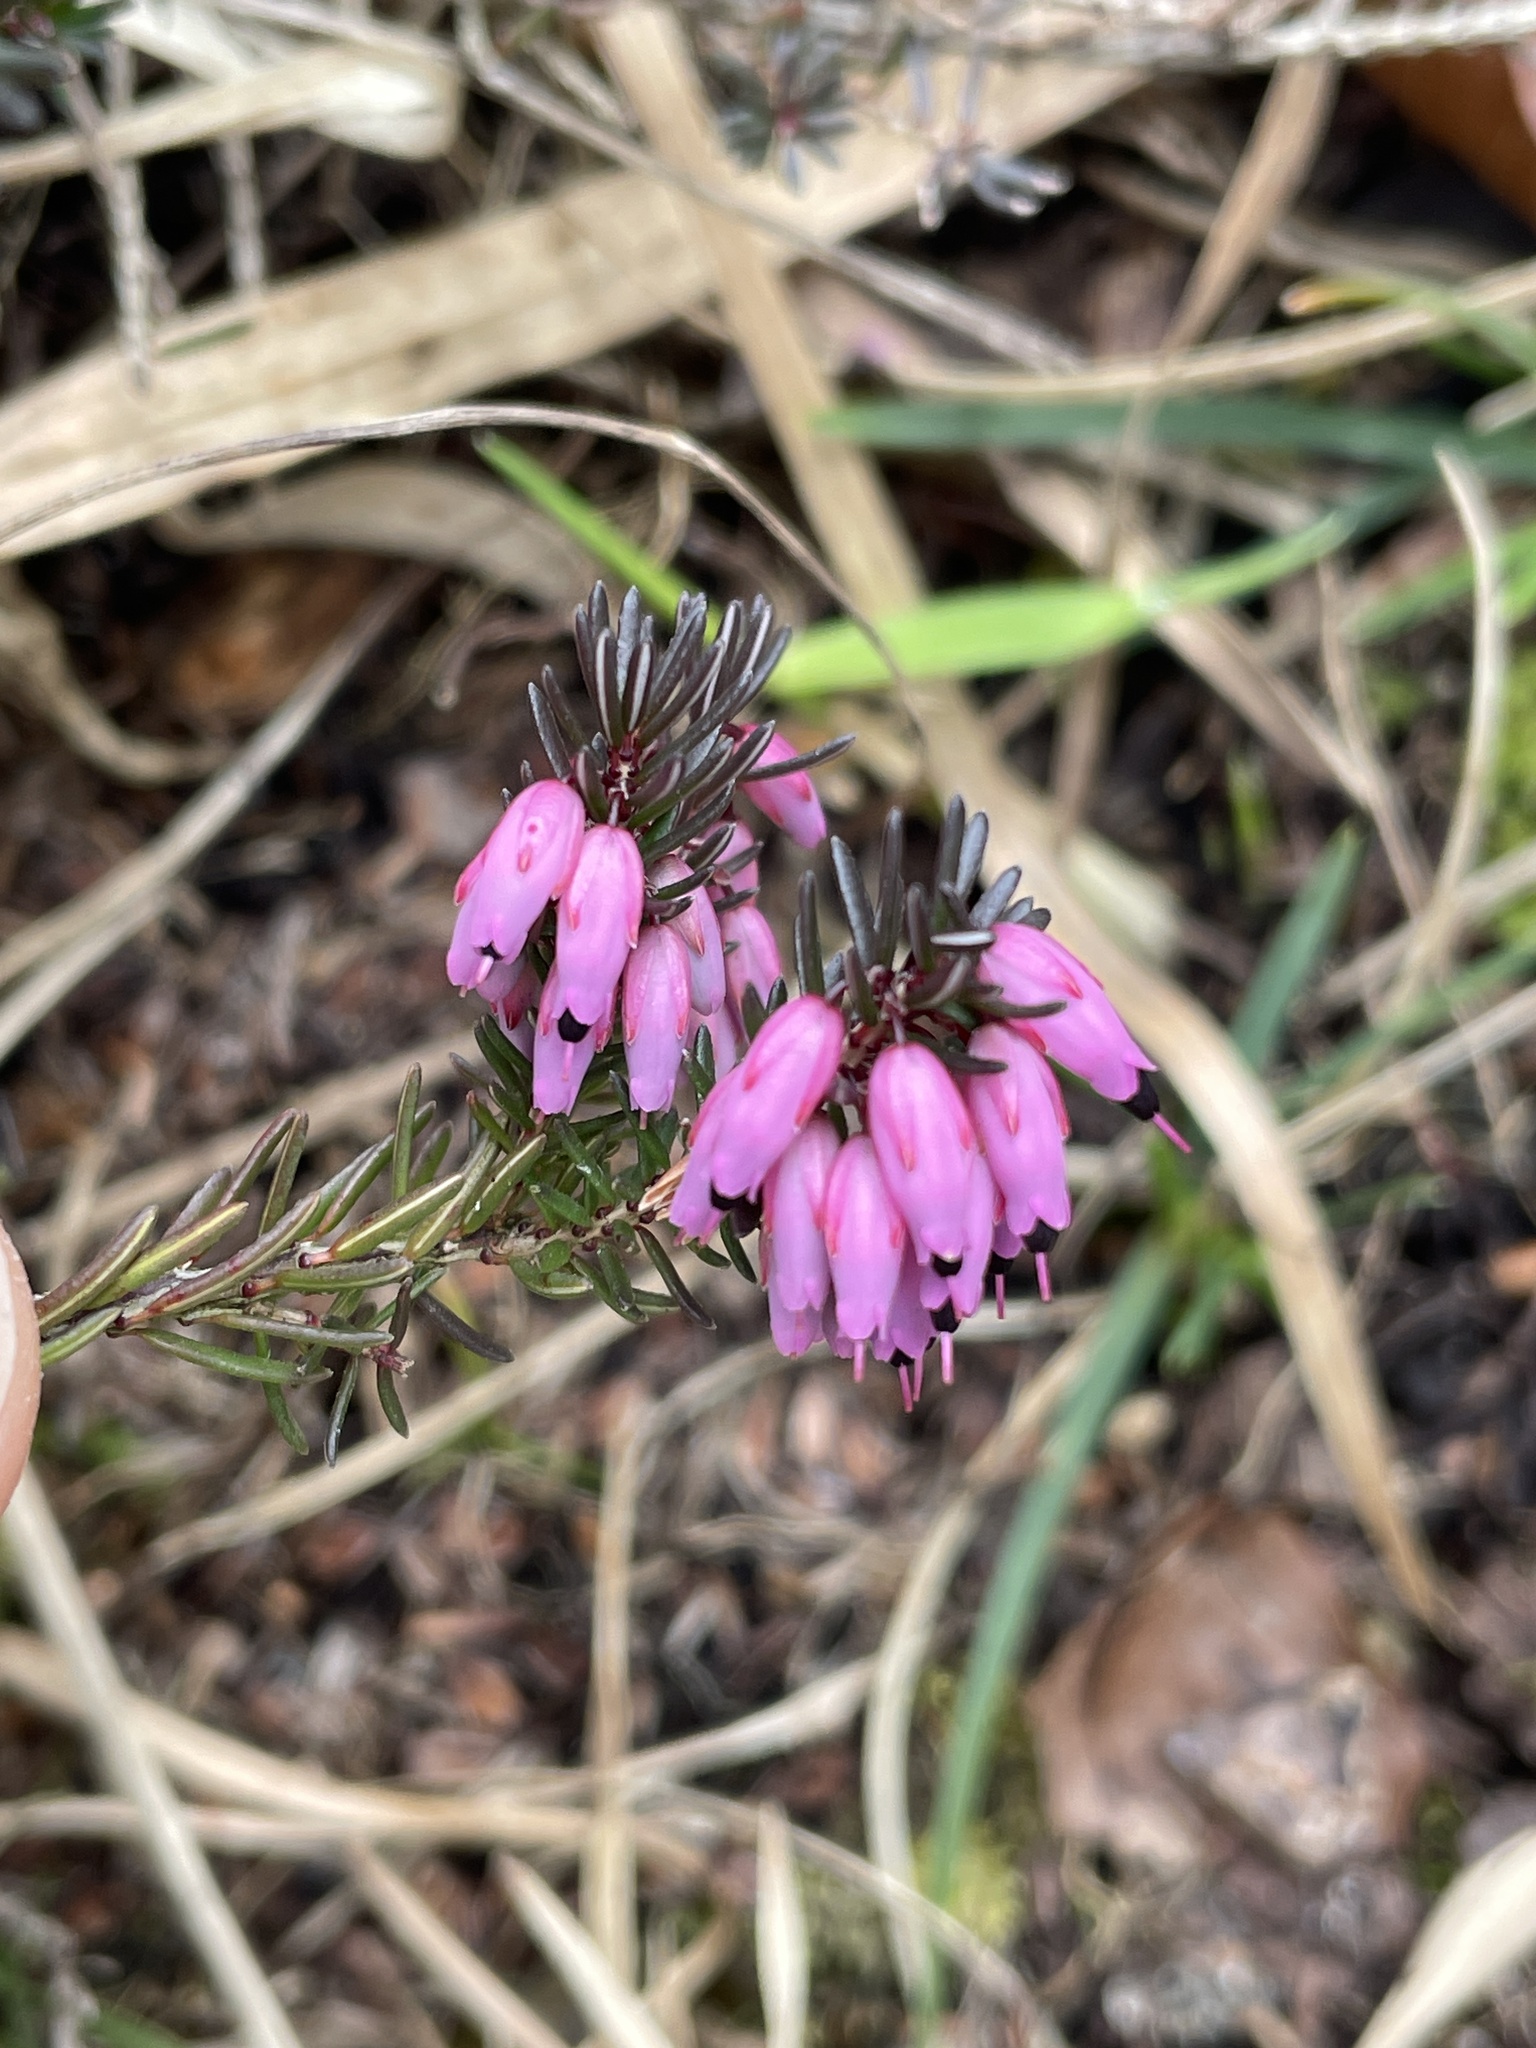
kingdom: Plantae
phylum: Tracheophyta
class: Magnoliopsida
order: Ericales
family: Ericaceae
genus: Erica
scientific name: Erica carnea
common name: Winter heath
